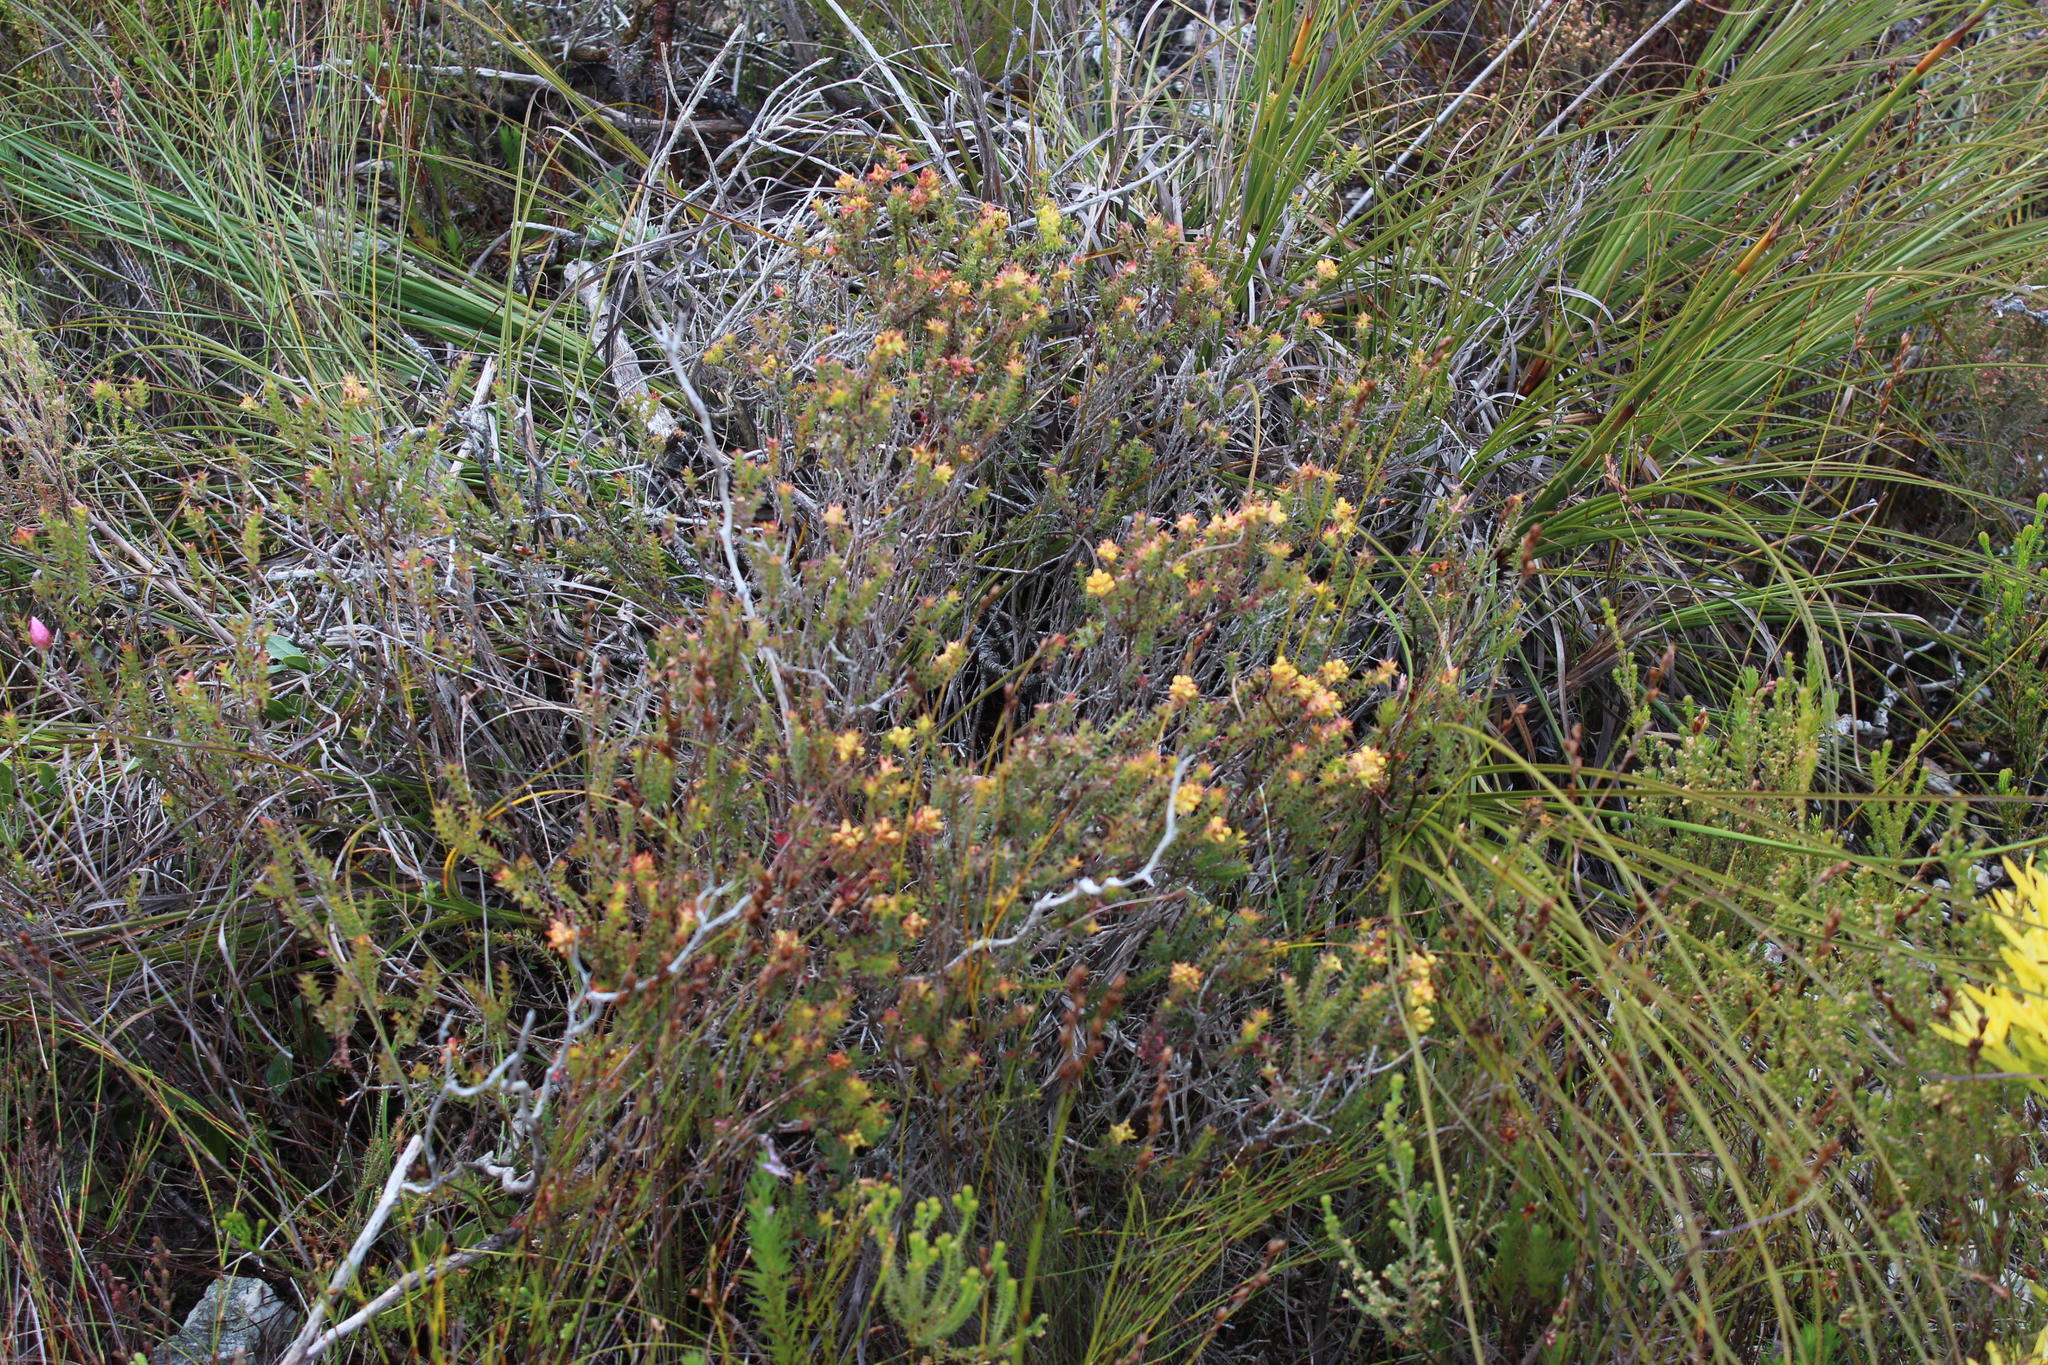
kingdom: Plantae
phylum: Tracheophyta
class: Magnoliopsida
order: Myrtales
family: Penaeaceae
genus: Penaea
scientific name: Penaea mucronata
